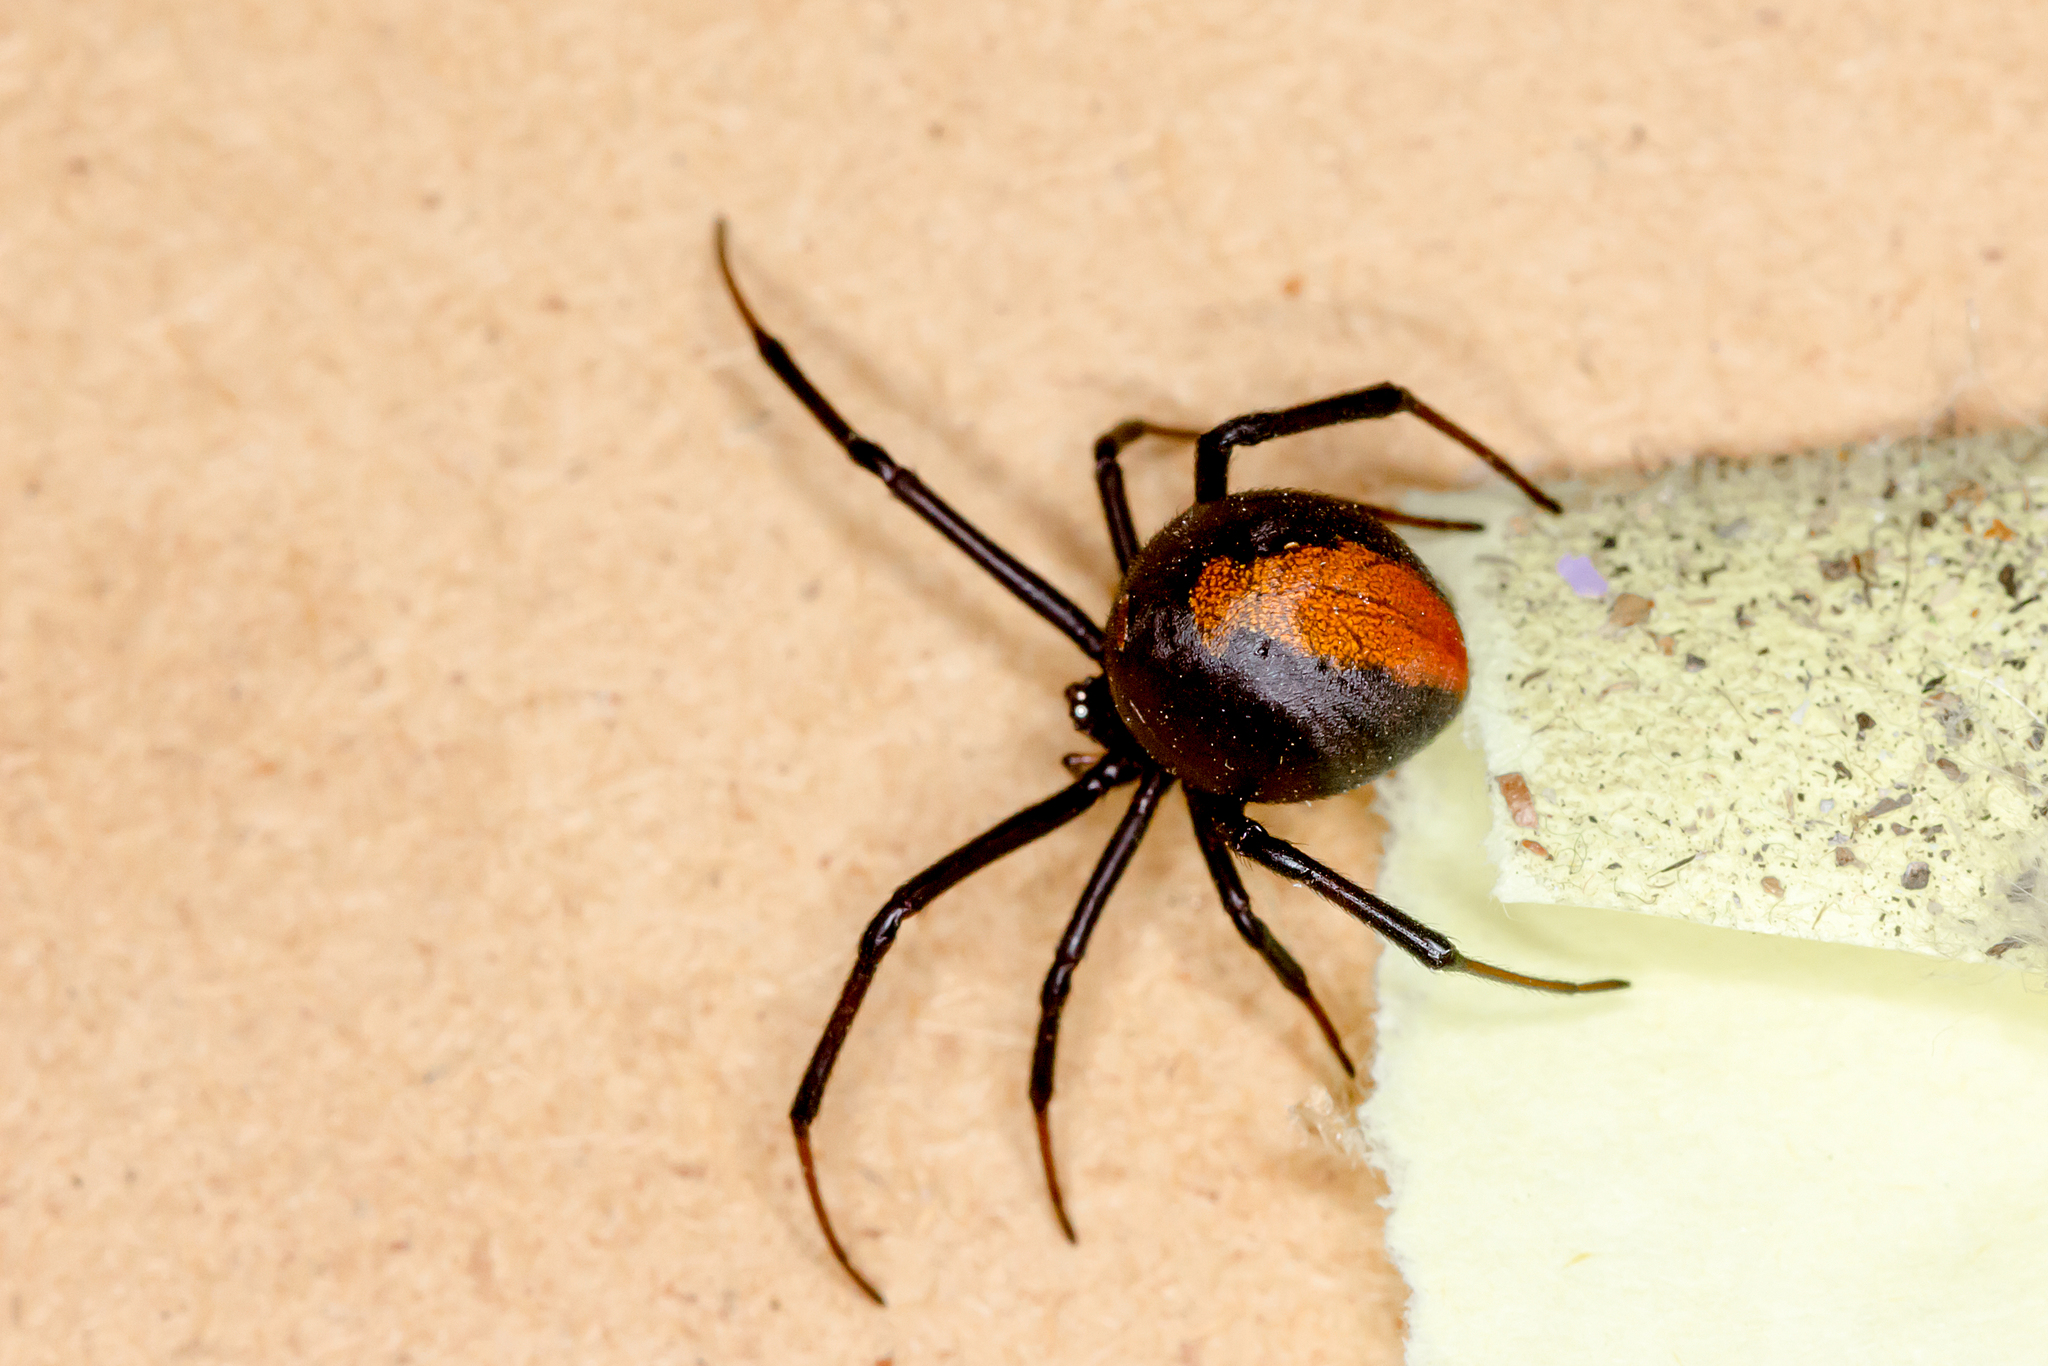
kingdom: Animalia
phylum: Arthropoda
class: Arachnida
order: Araneae
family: Theridiidae
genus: Latrodectus
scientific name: Latrodectus hasselti
